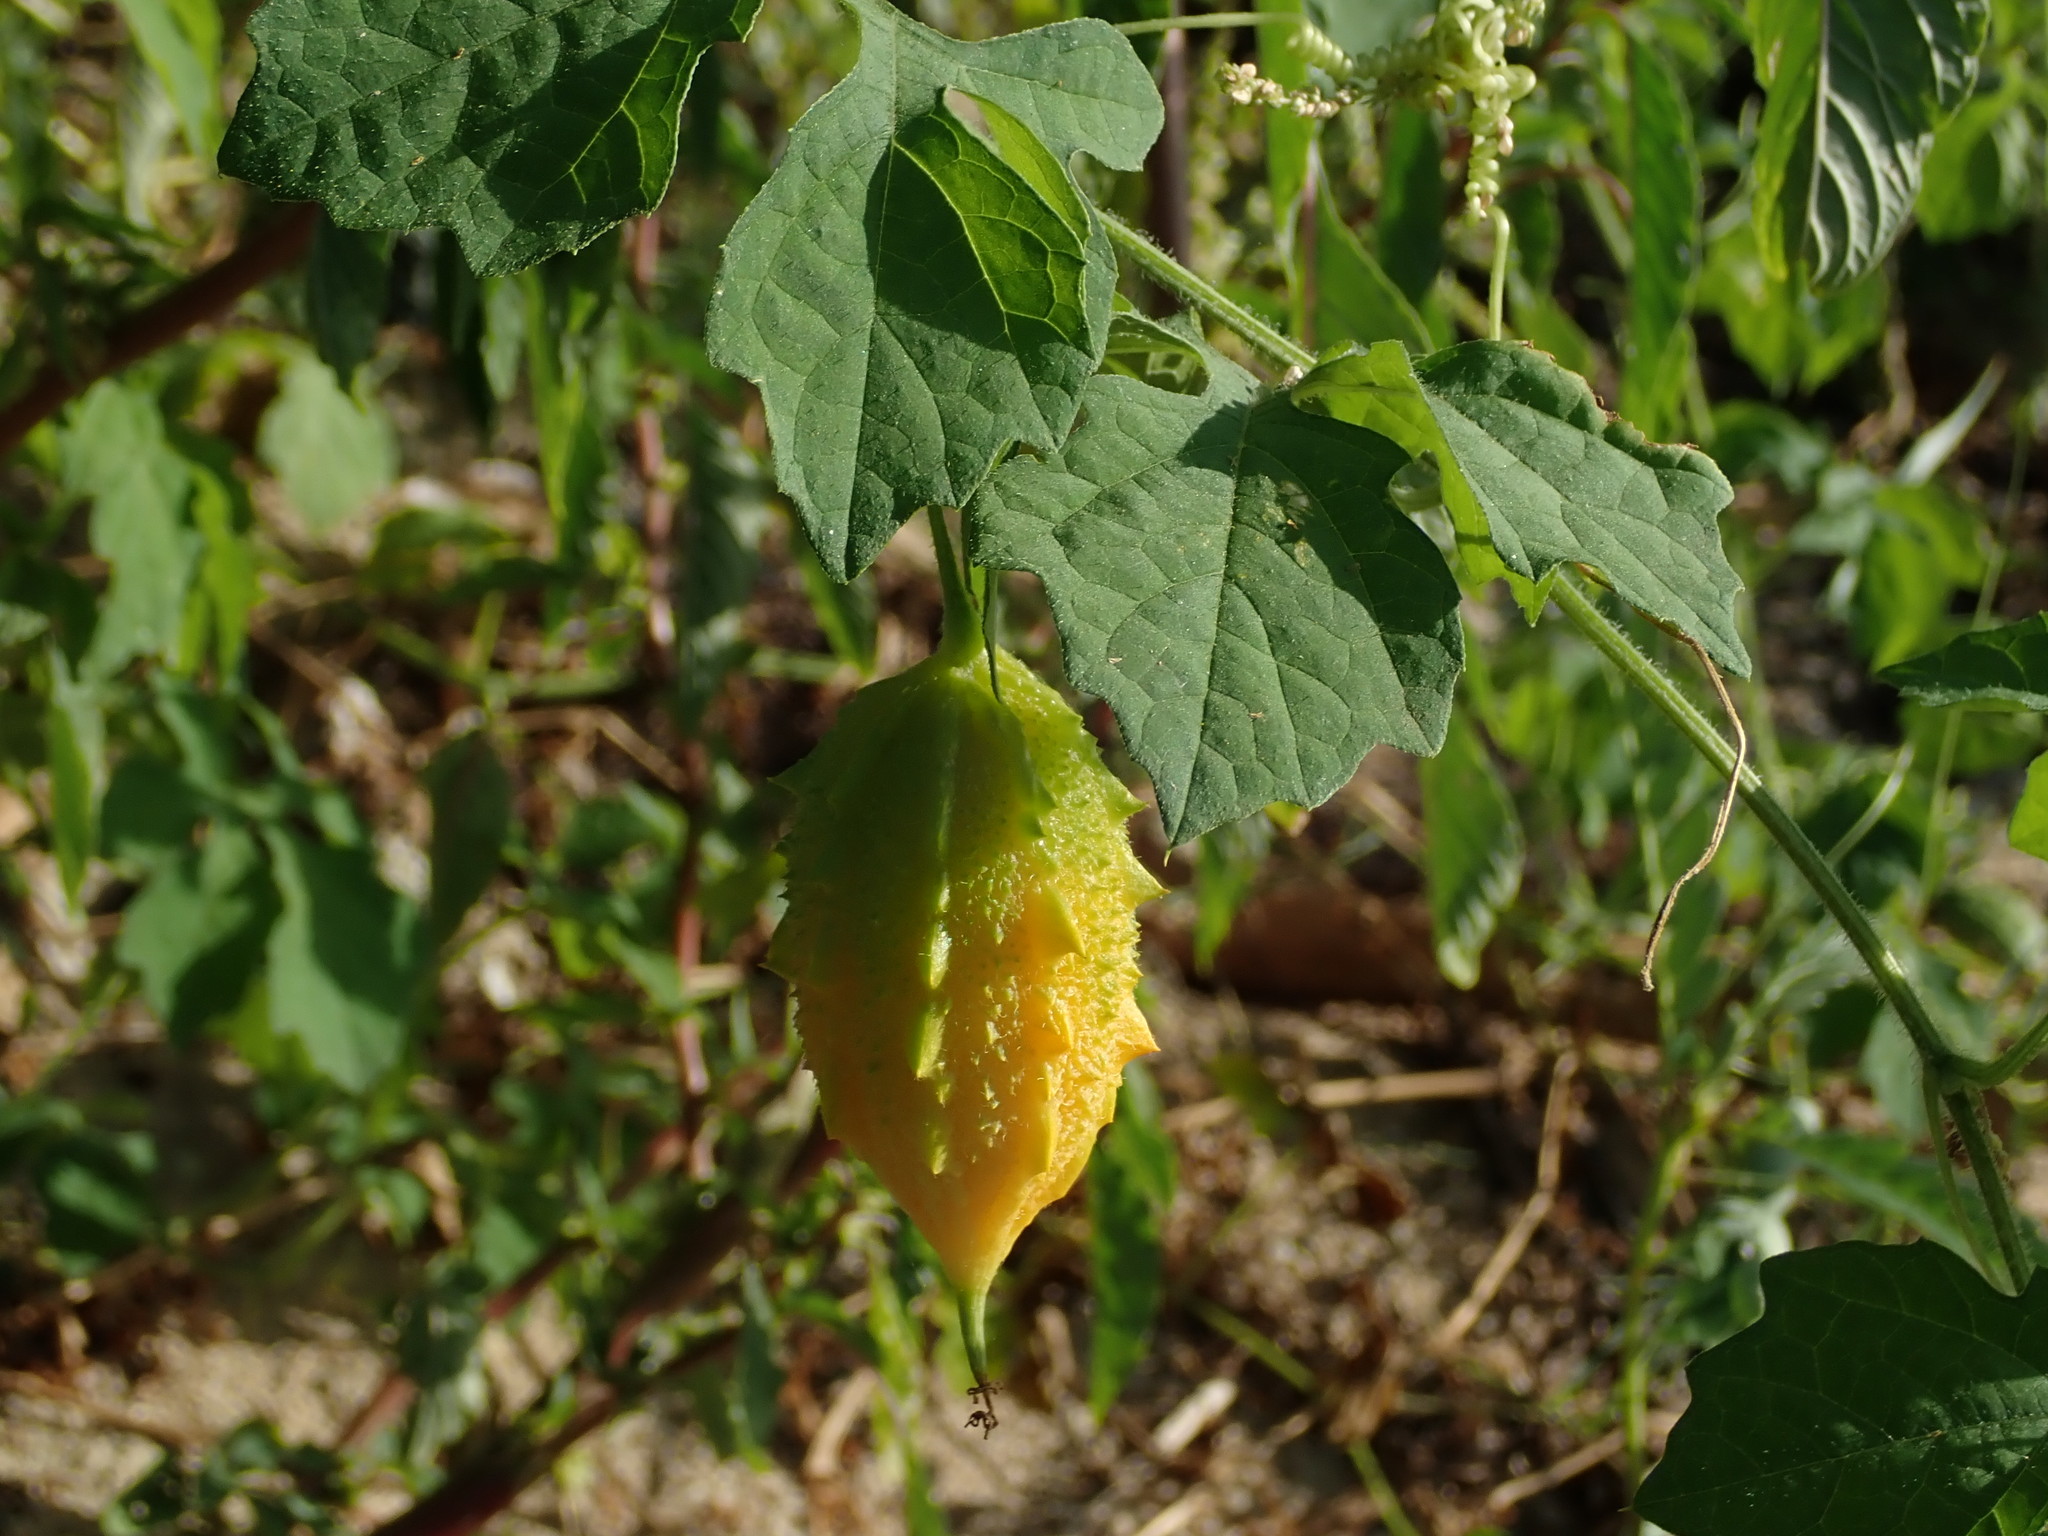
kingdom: Plantae
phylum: Tracheophyta
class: Magnoliopsida
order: Cucurbitales
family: Cucurbitaceae
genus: Momordica
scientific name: Momordica charantia
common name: Balsampear
